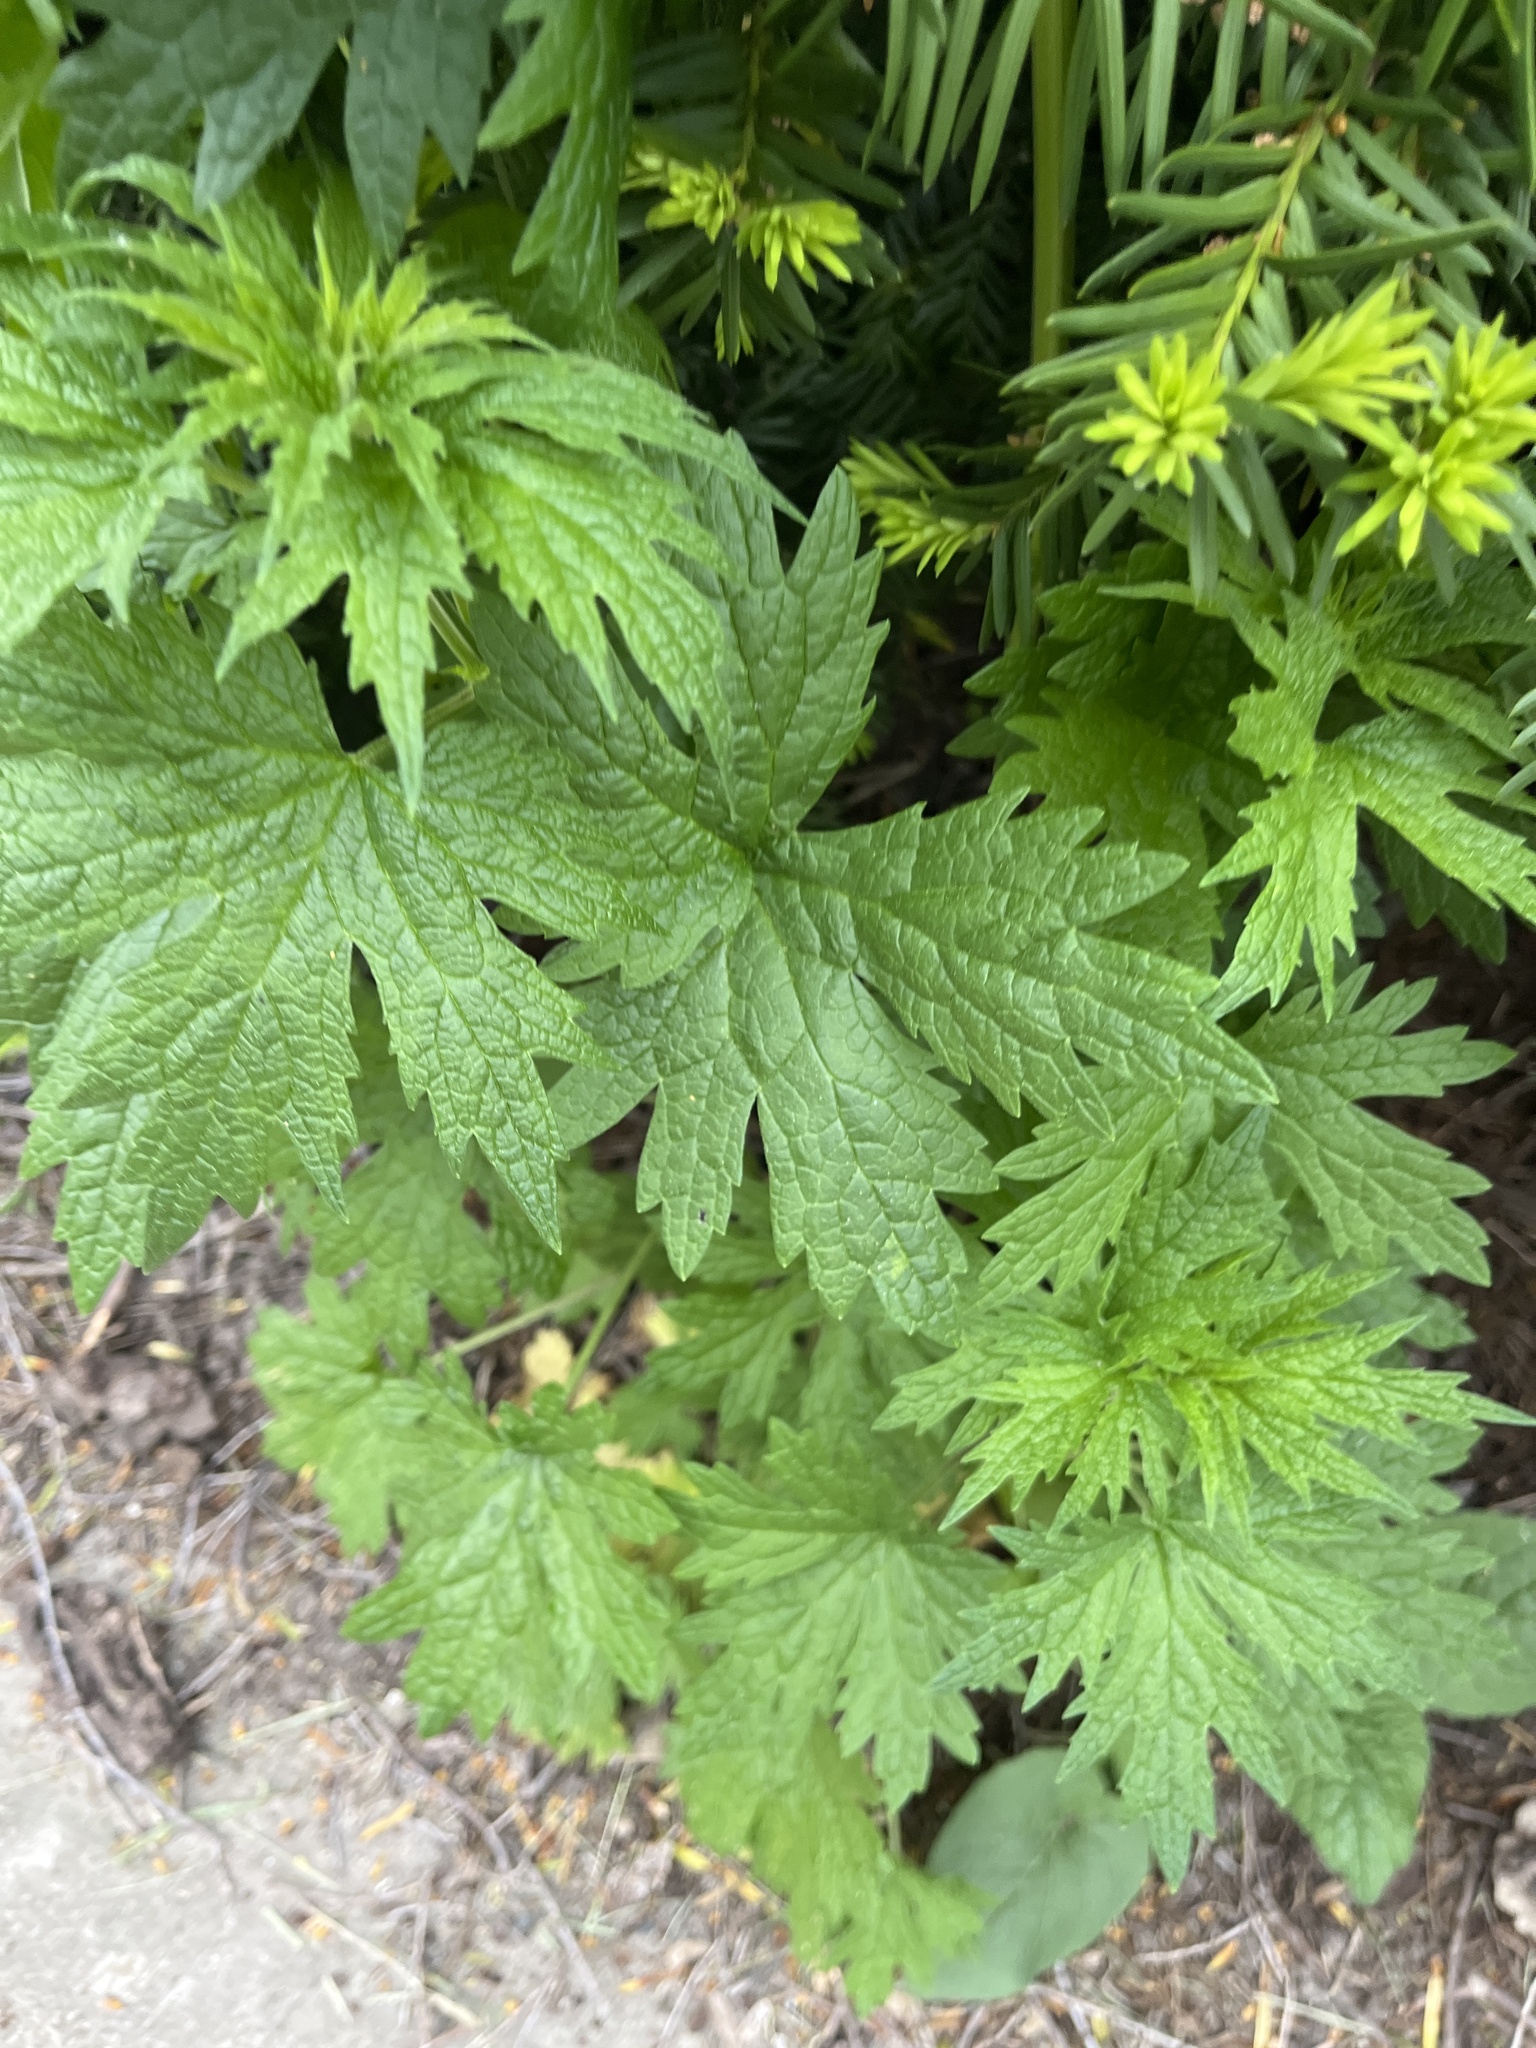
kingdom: Plantae
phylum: Tracheophyta
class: Magnoliopsida
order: Lamiales
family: Lamiaceae
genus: Leonurus
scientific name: Leonurus cardiaca
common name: Motherwort
